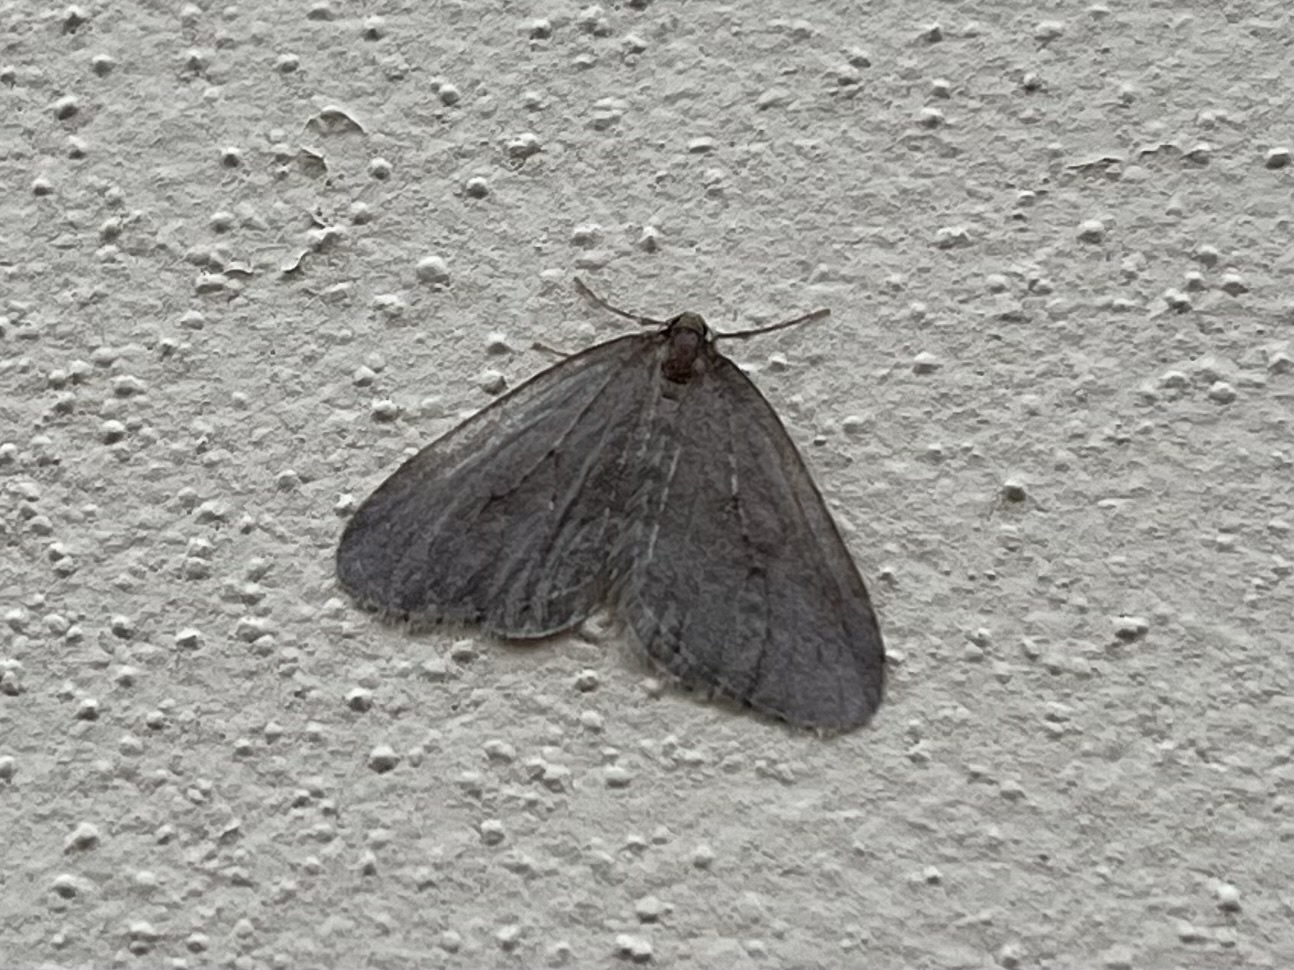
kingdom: Animalia
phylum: Arthropoda
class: Insecta
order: Lepidoptera
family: Geometridae
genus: Operophtera
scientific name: Operophtera brumata
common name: Winter moth
